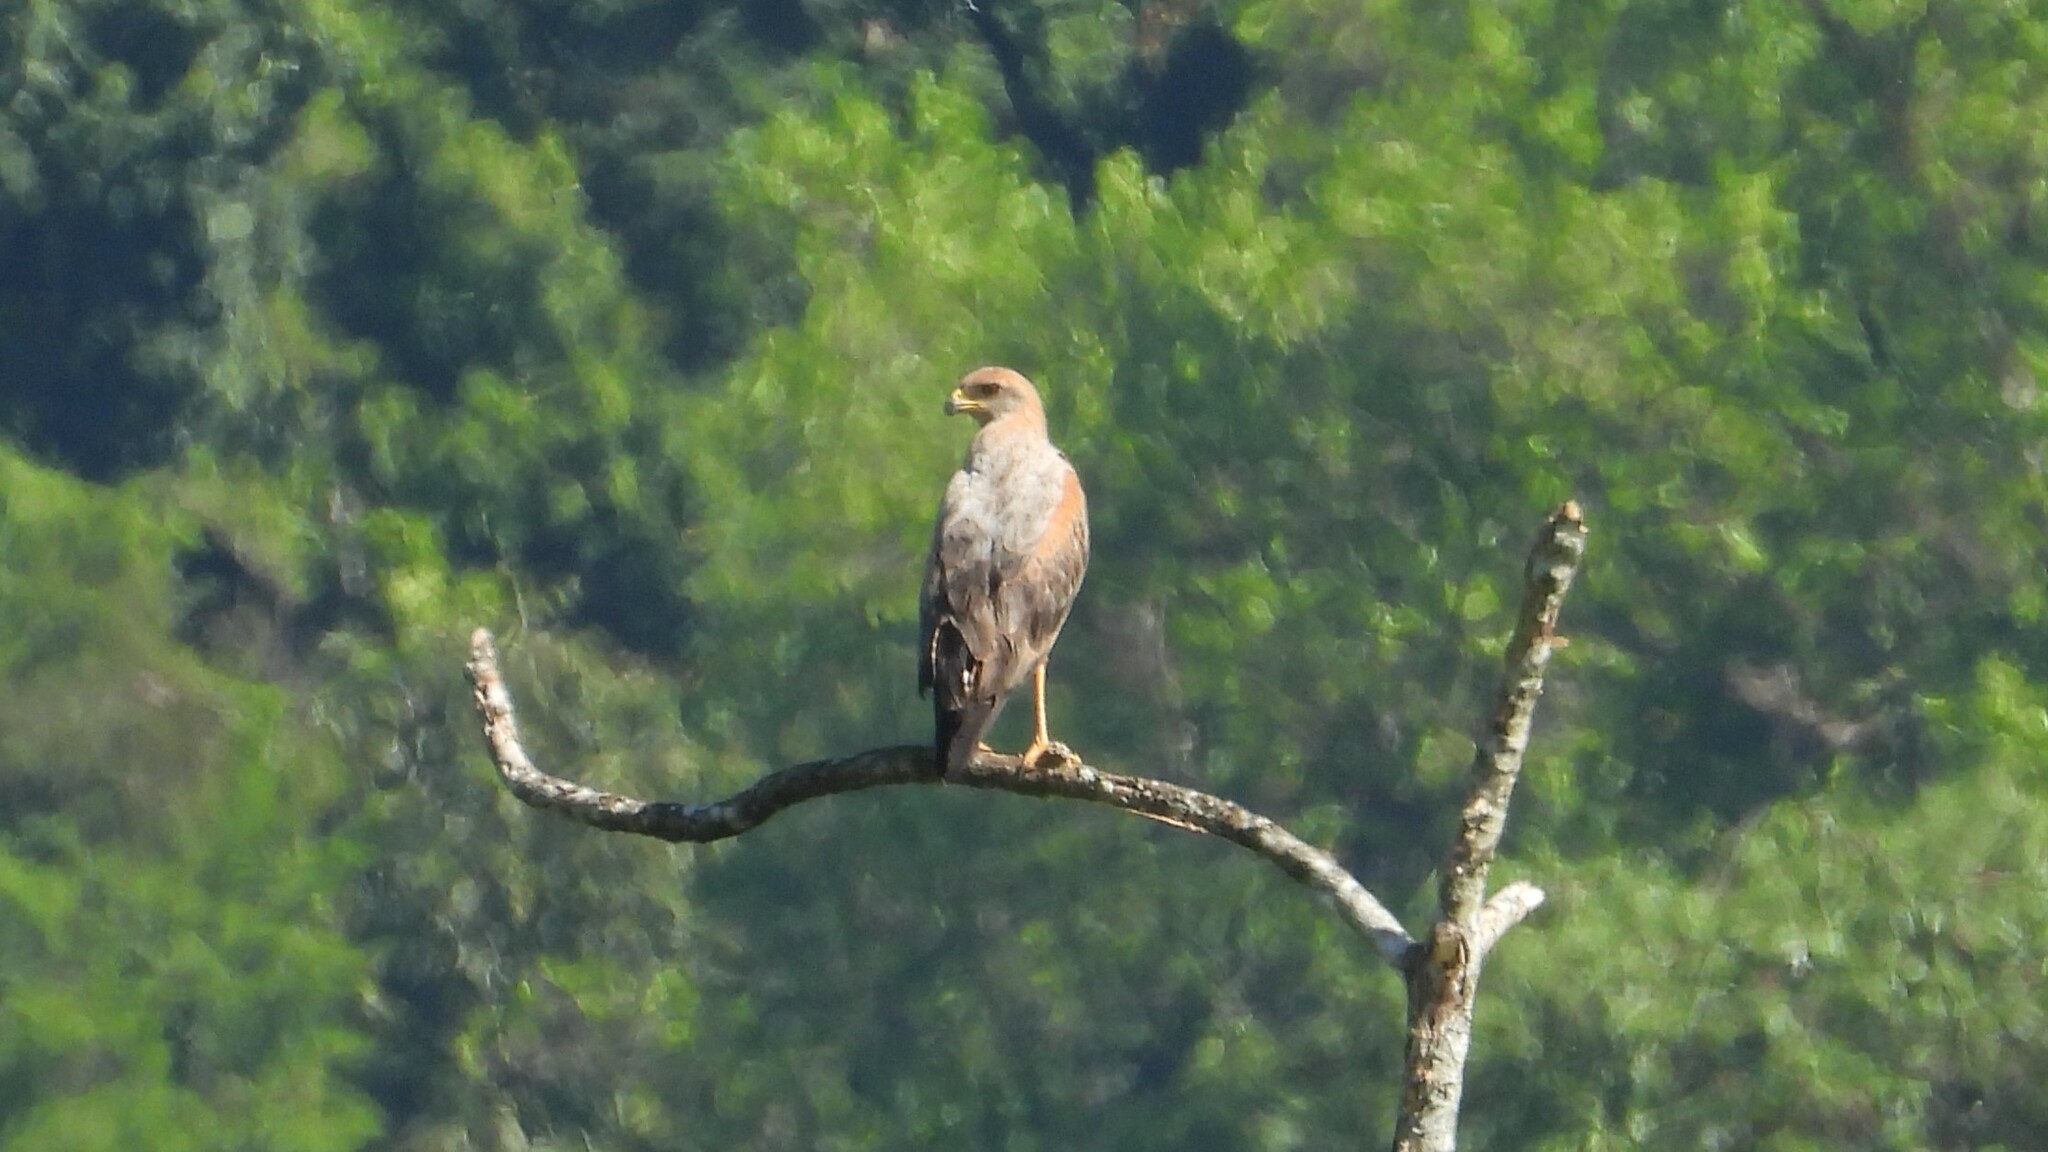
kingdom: Animalia
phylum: Chordata
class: Aves
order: Accipitriformes
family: Accipitridae
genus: Buteogallus
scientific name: Buteogallus meridionalis
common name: Savanna hawk
